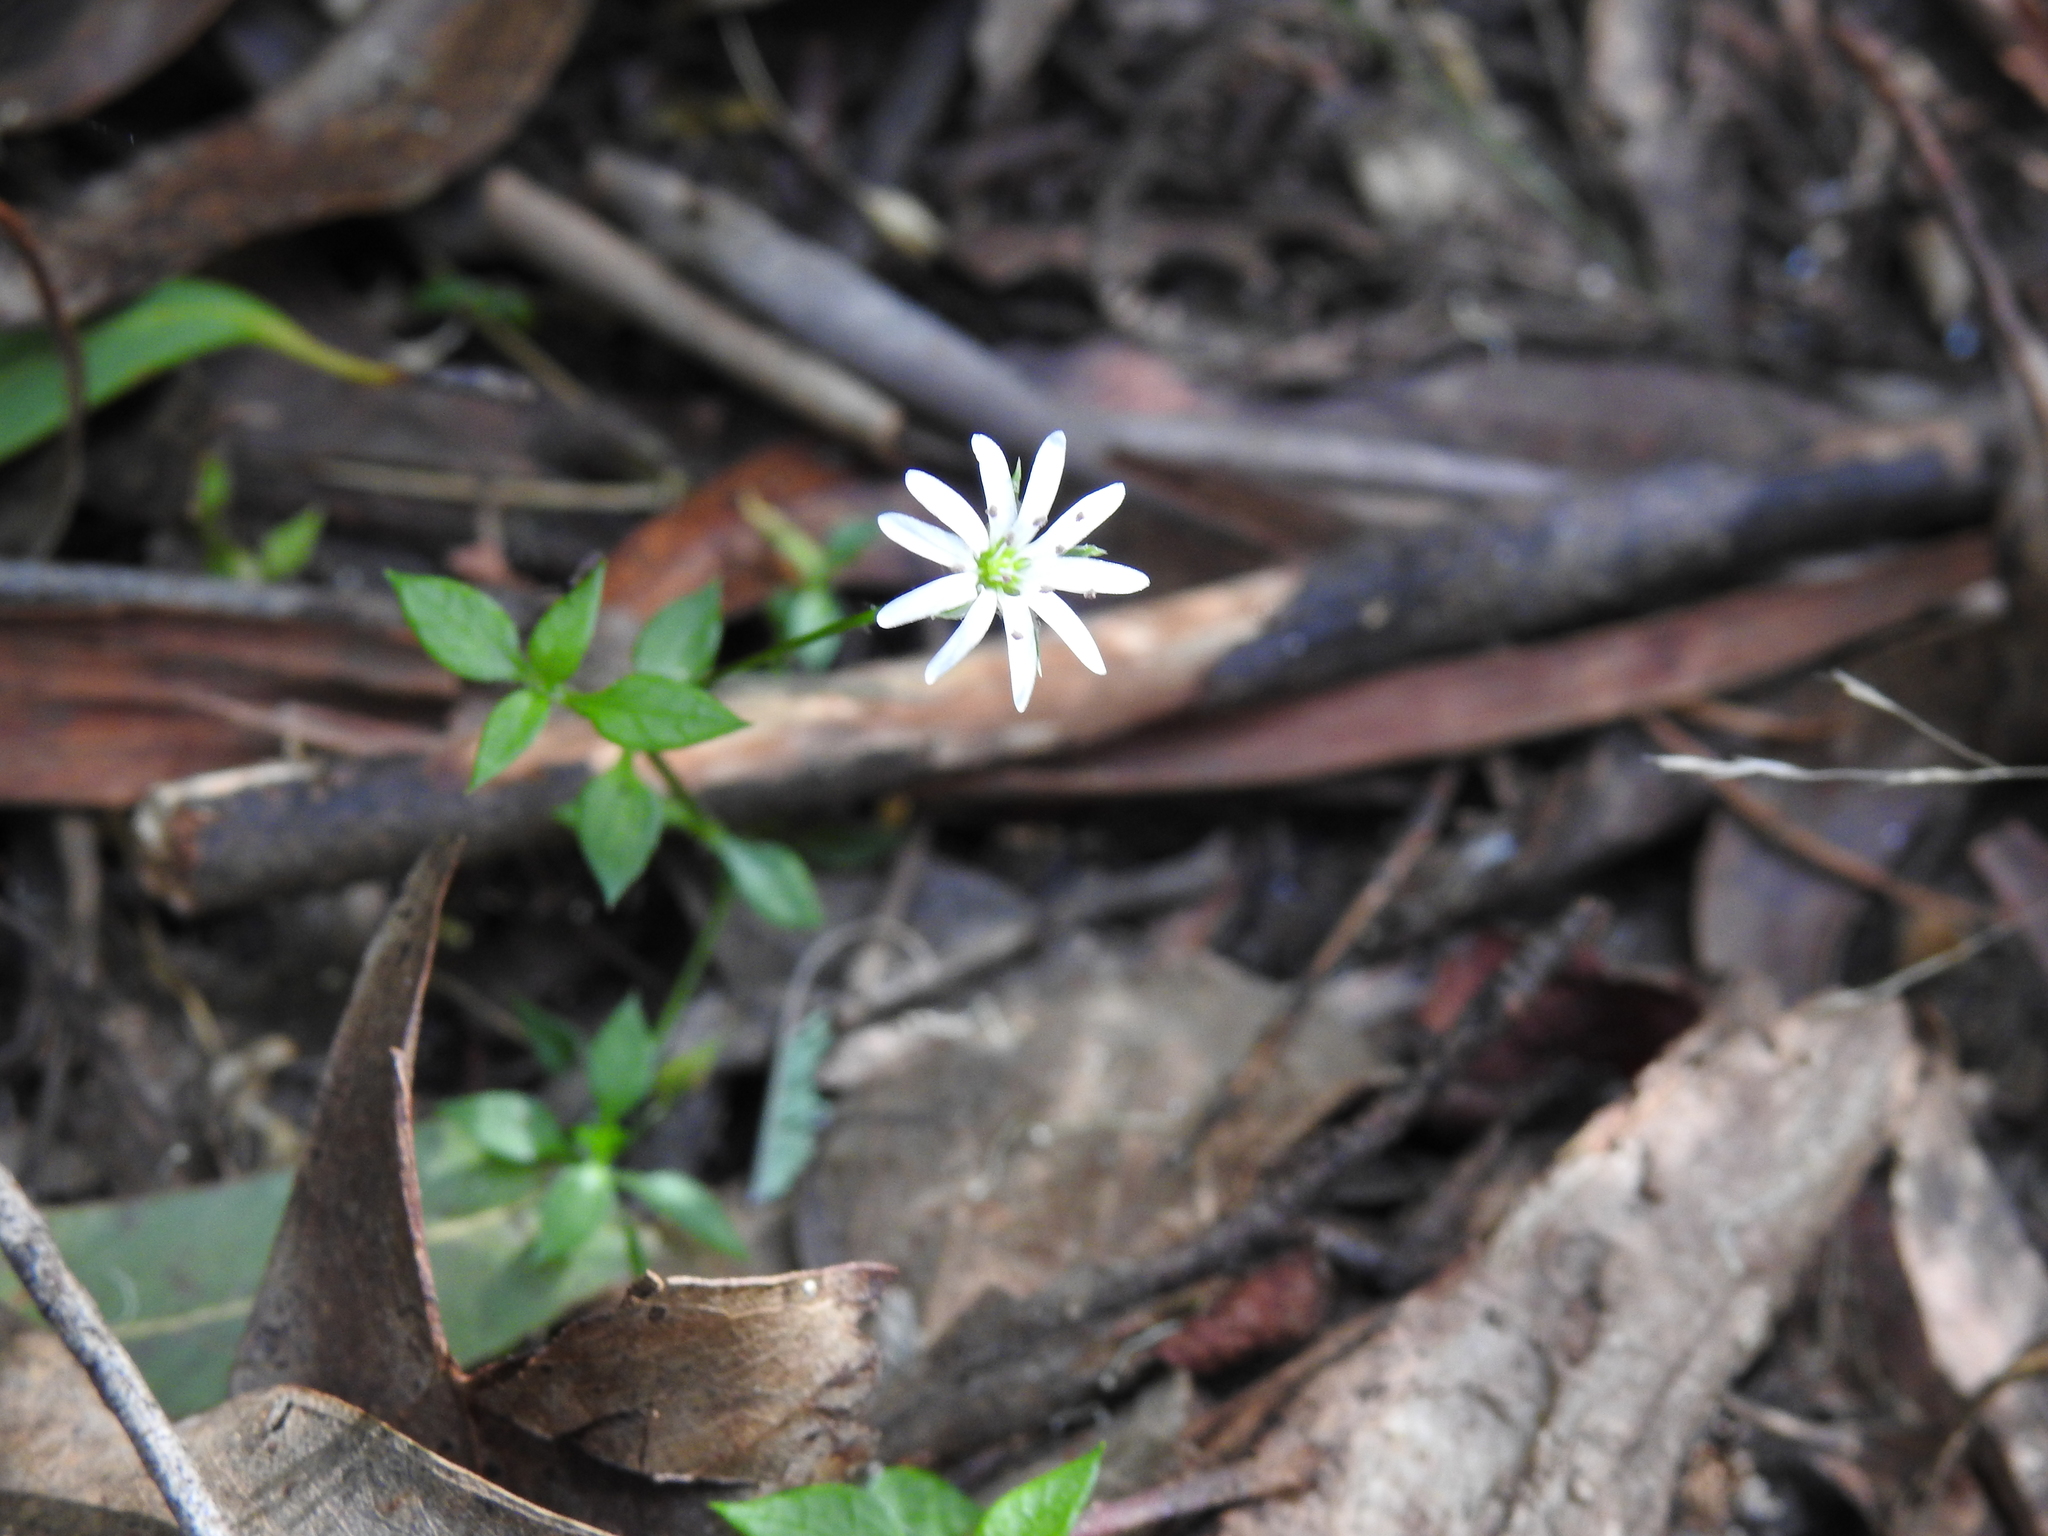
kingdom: Plantae
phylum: Tracheophyta
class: Magnoliopsida
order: Caryophyllales
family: Caryophyllaceae
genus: Stellaria
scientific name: Stellaria flaccida
